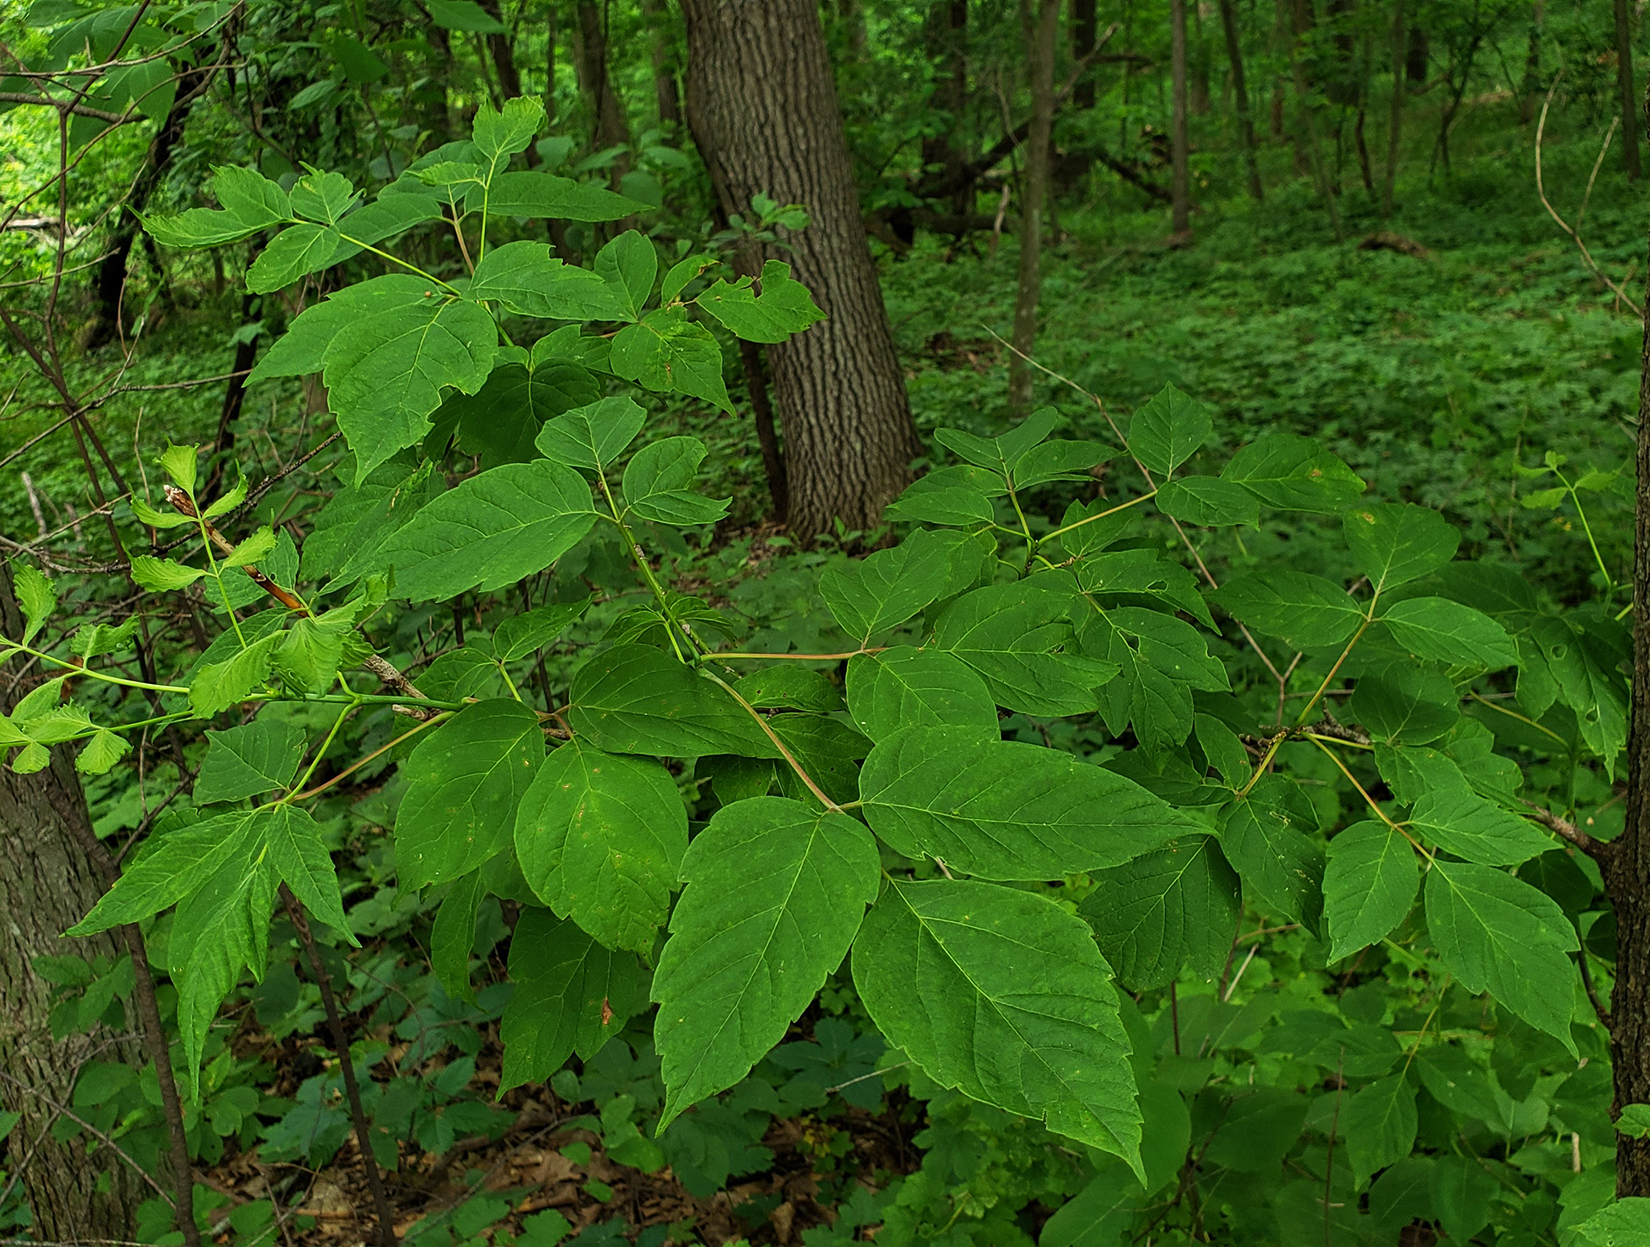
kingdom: Plantae
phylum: Tracheophyta
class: Magnoliopsida
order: Sapindales
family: Sapindaceae
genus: Acer
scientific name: Acer negundo
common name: Ashleaf maple
